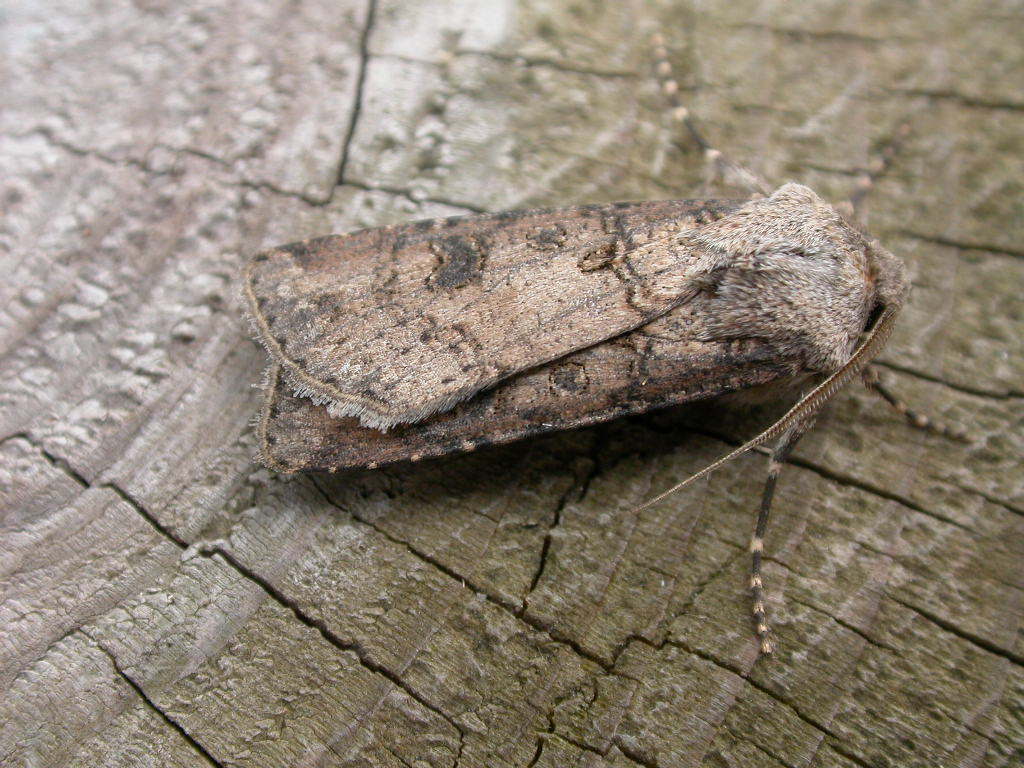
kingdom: Animalia
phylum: Arthropoda
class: Insecta
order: Lepidoptera
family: Noctuidae
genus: Agrotis
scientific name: Agrotis segetum
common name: Turnip moth
